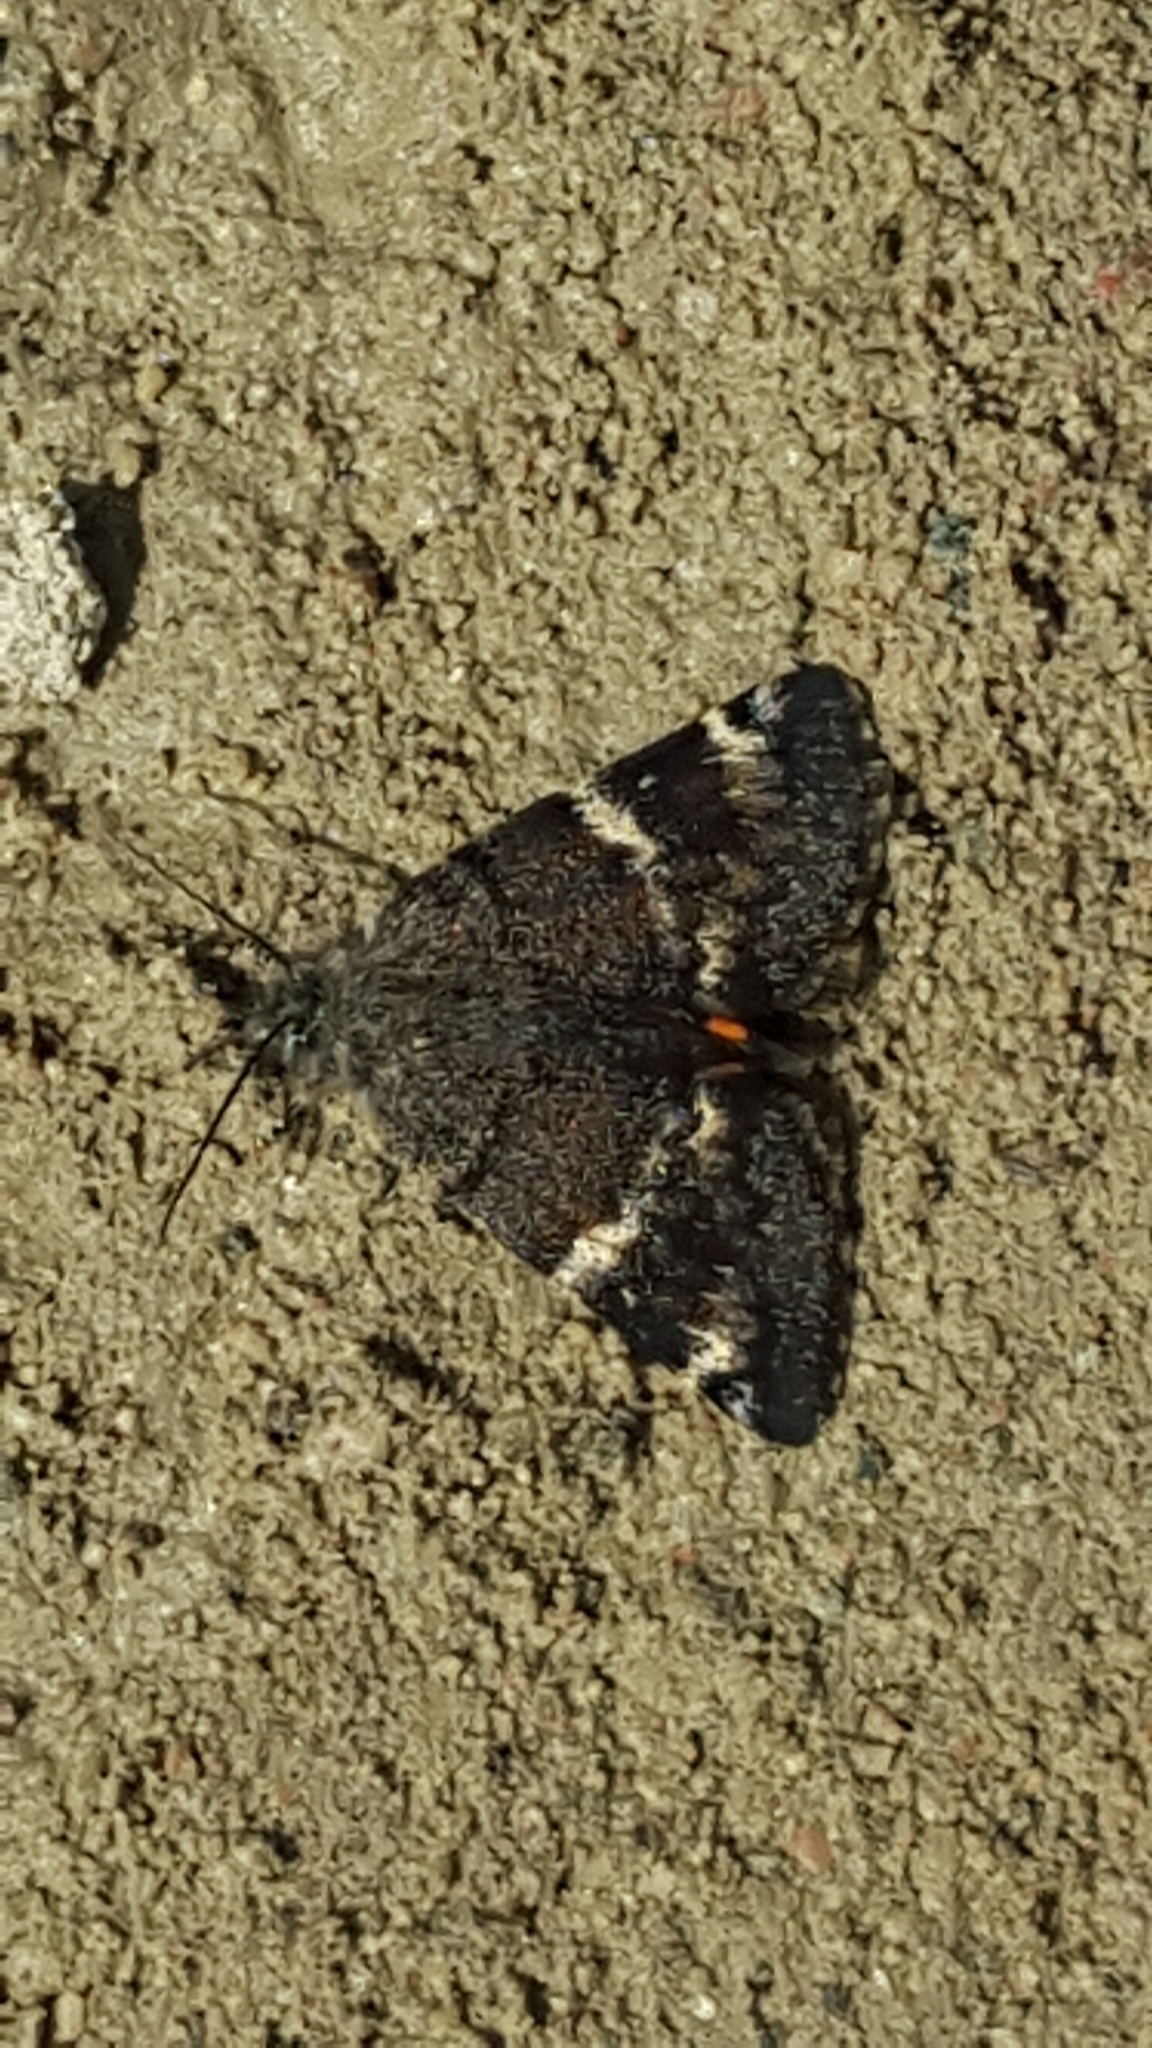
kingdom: Animalia
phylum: Arthropoda
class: Insecta
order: Lepidoptera
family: Geometridae
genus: Archiearis
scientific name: Archiearis infans
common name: First born geometer
